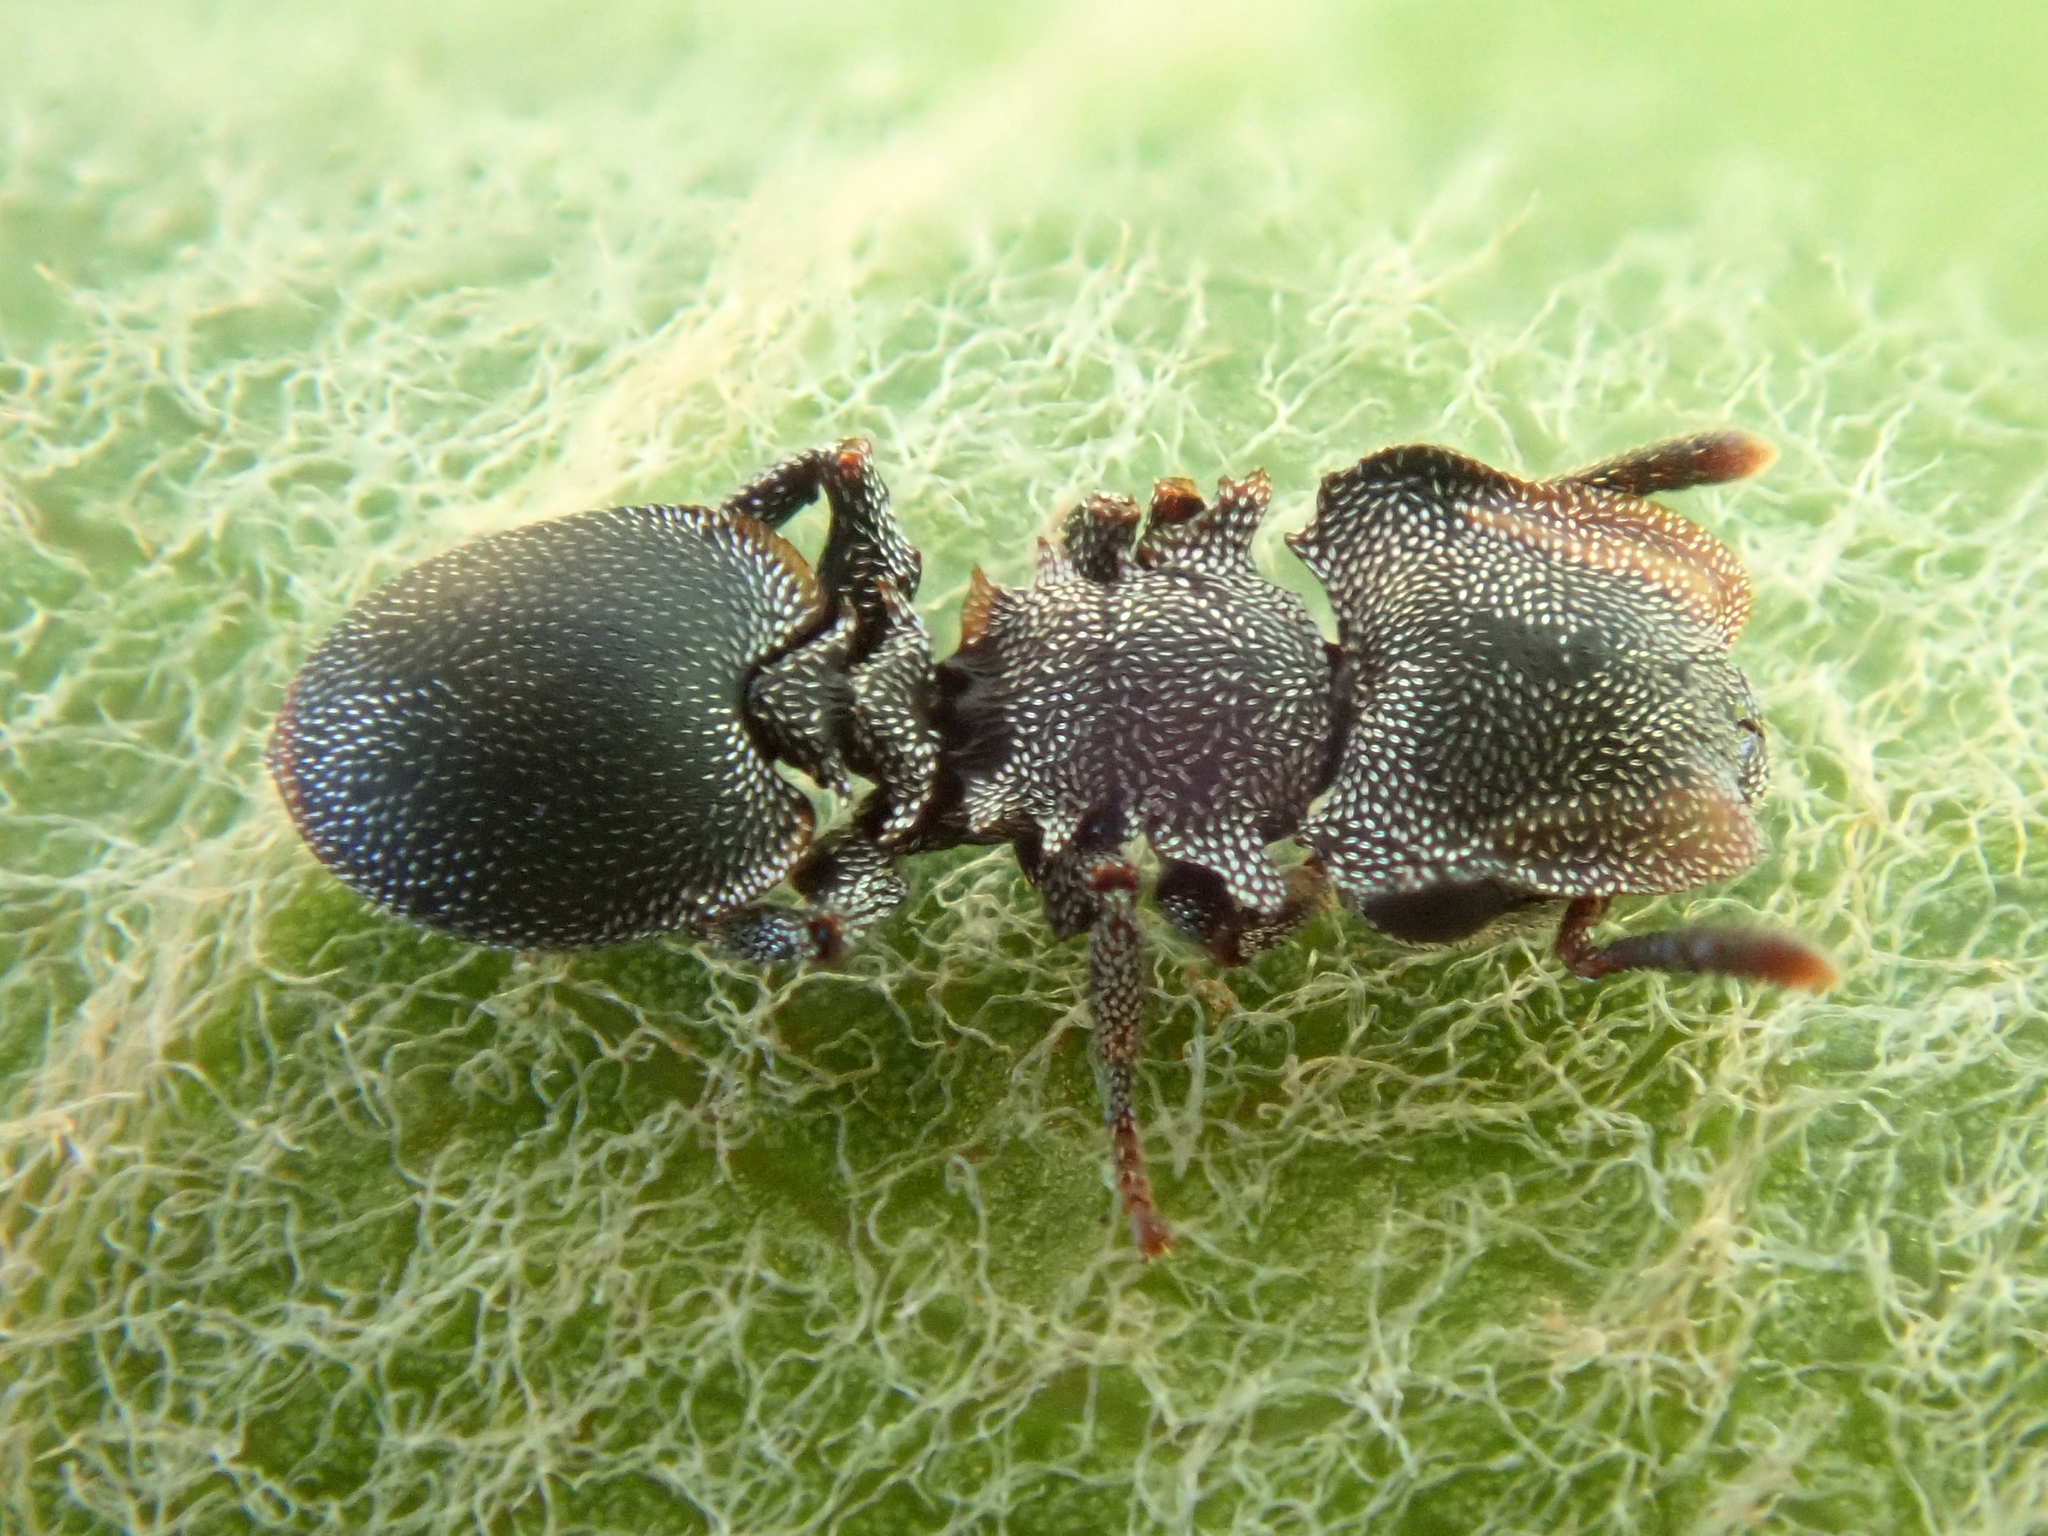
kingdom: Animalia
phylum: Arthropoda
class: Insecta
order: Hymenoptera
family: Formicidae
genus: Cephalotes
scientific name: Cephalotes betoi
